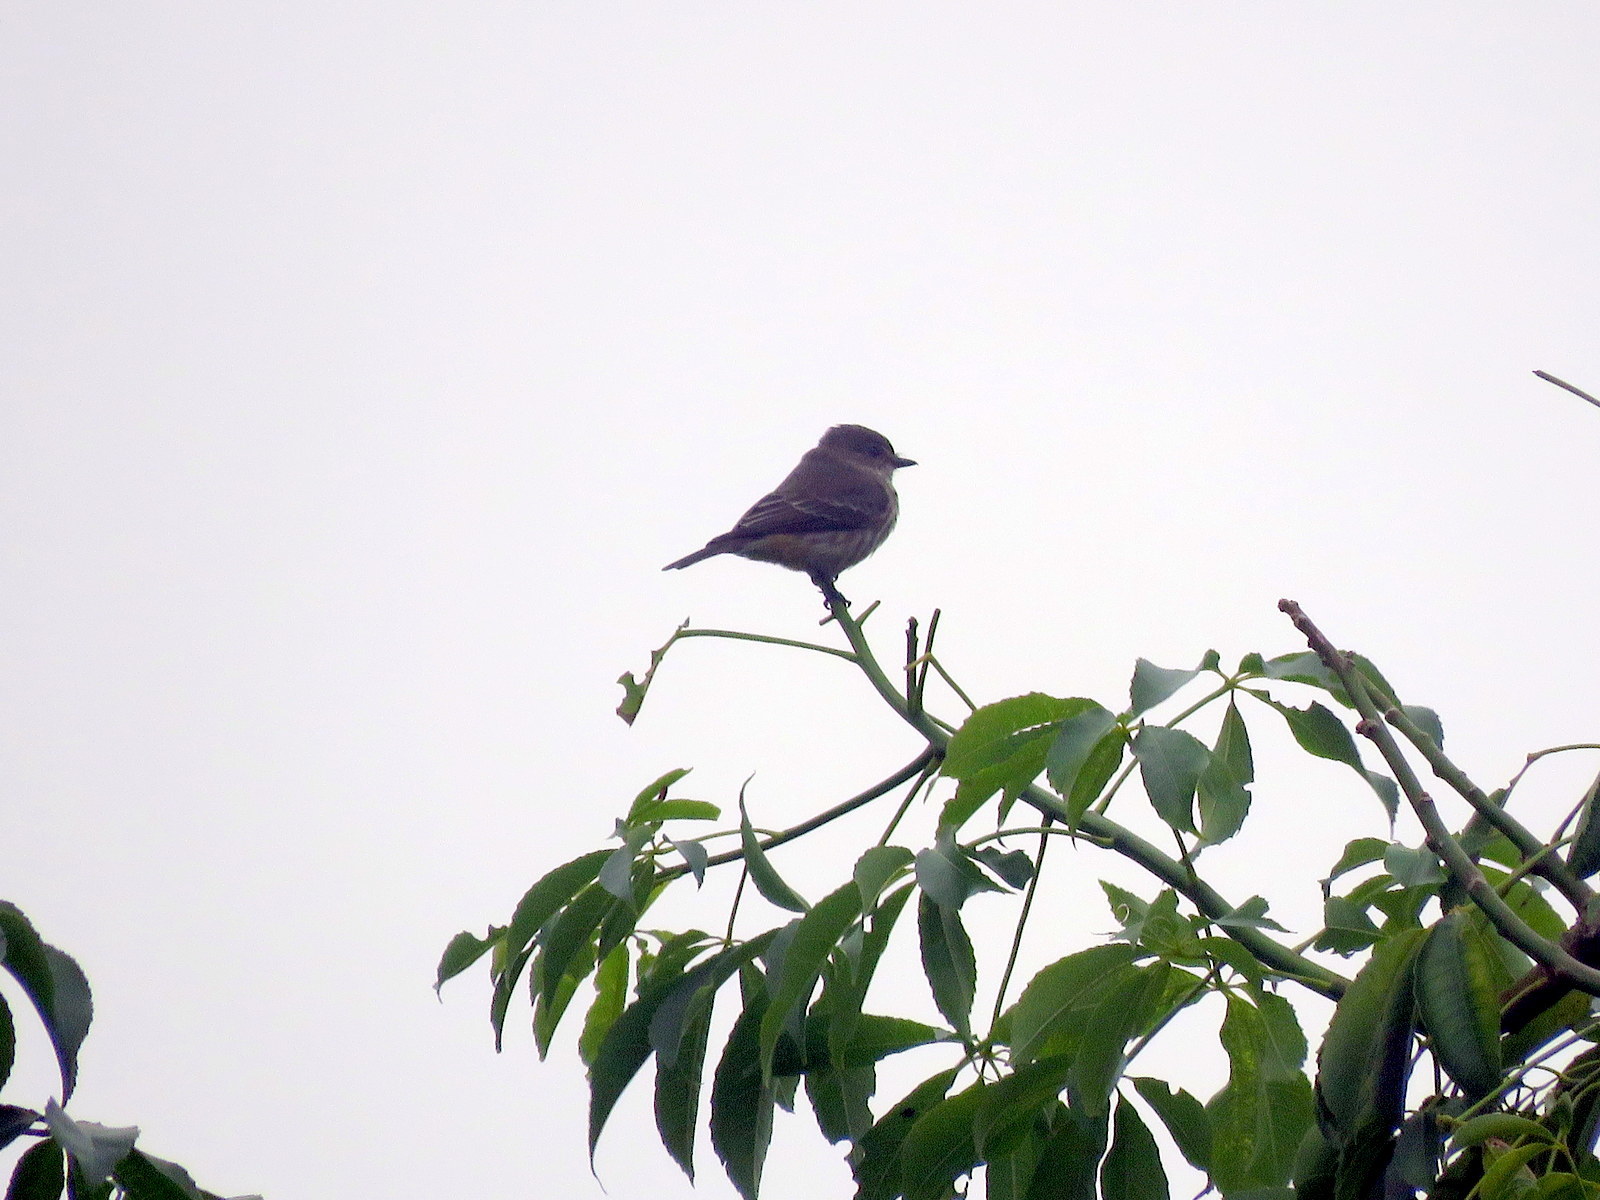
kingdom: Animalia
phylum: Chordata
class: Aves
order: Passeriformes
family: Tyrannidae
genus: Pyrocephalus
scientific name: Pyrocephalus rubinus
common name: Vermilion flycatcher
